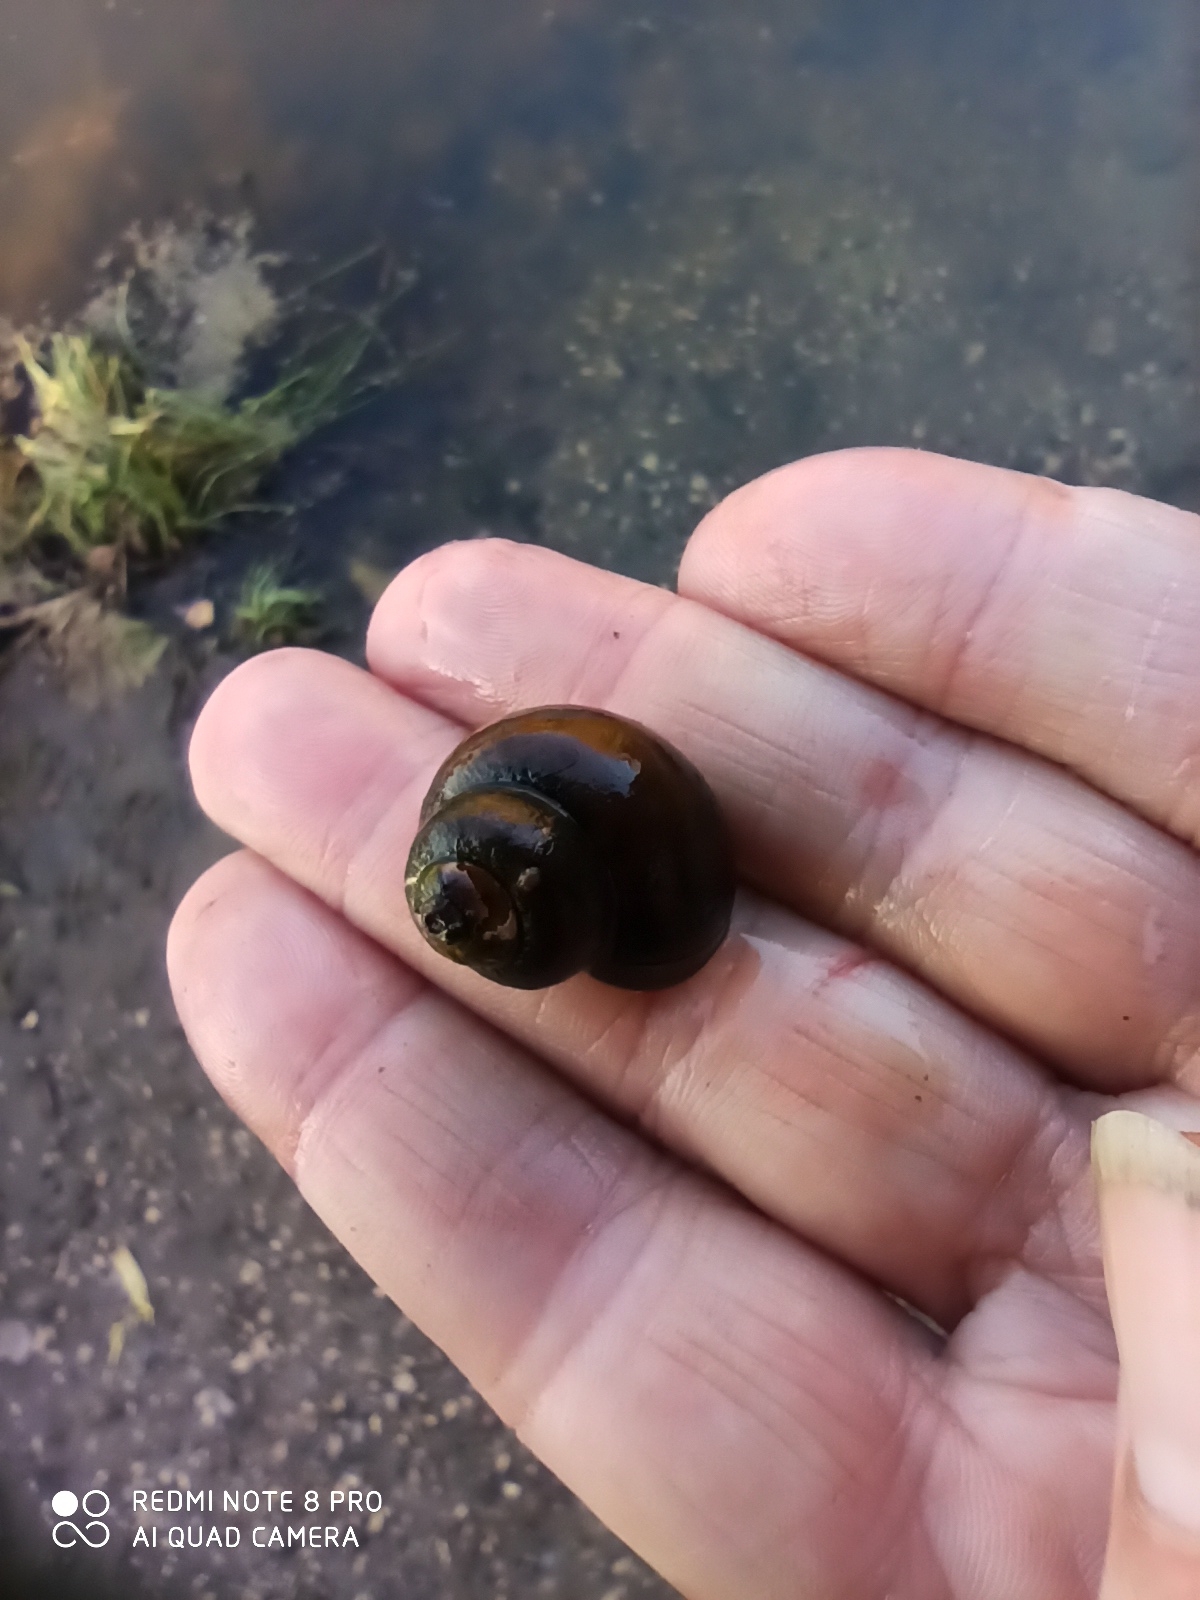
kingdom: Animalia
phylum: Mollusca
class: Gastropoda
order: Architaenioglossa
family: Viviparidae
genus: Viviparus
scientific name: Viviparus contectus
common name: Lister's river snail
